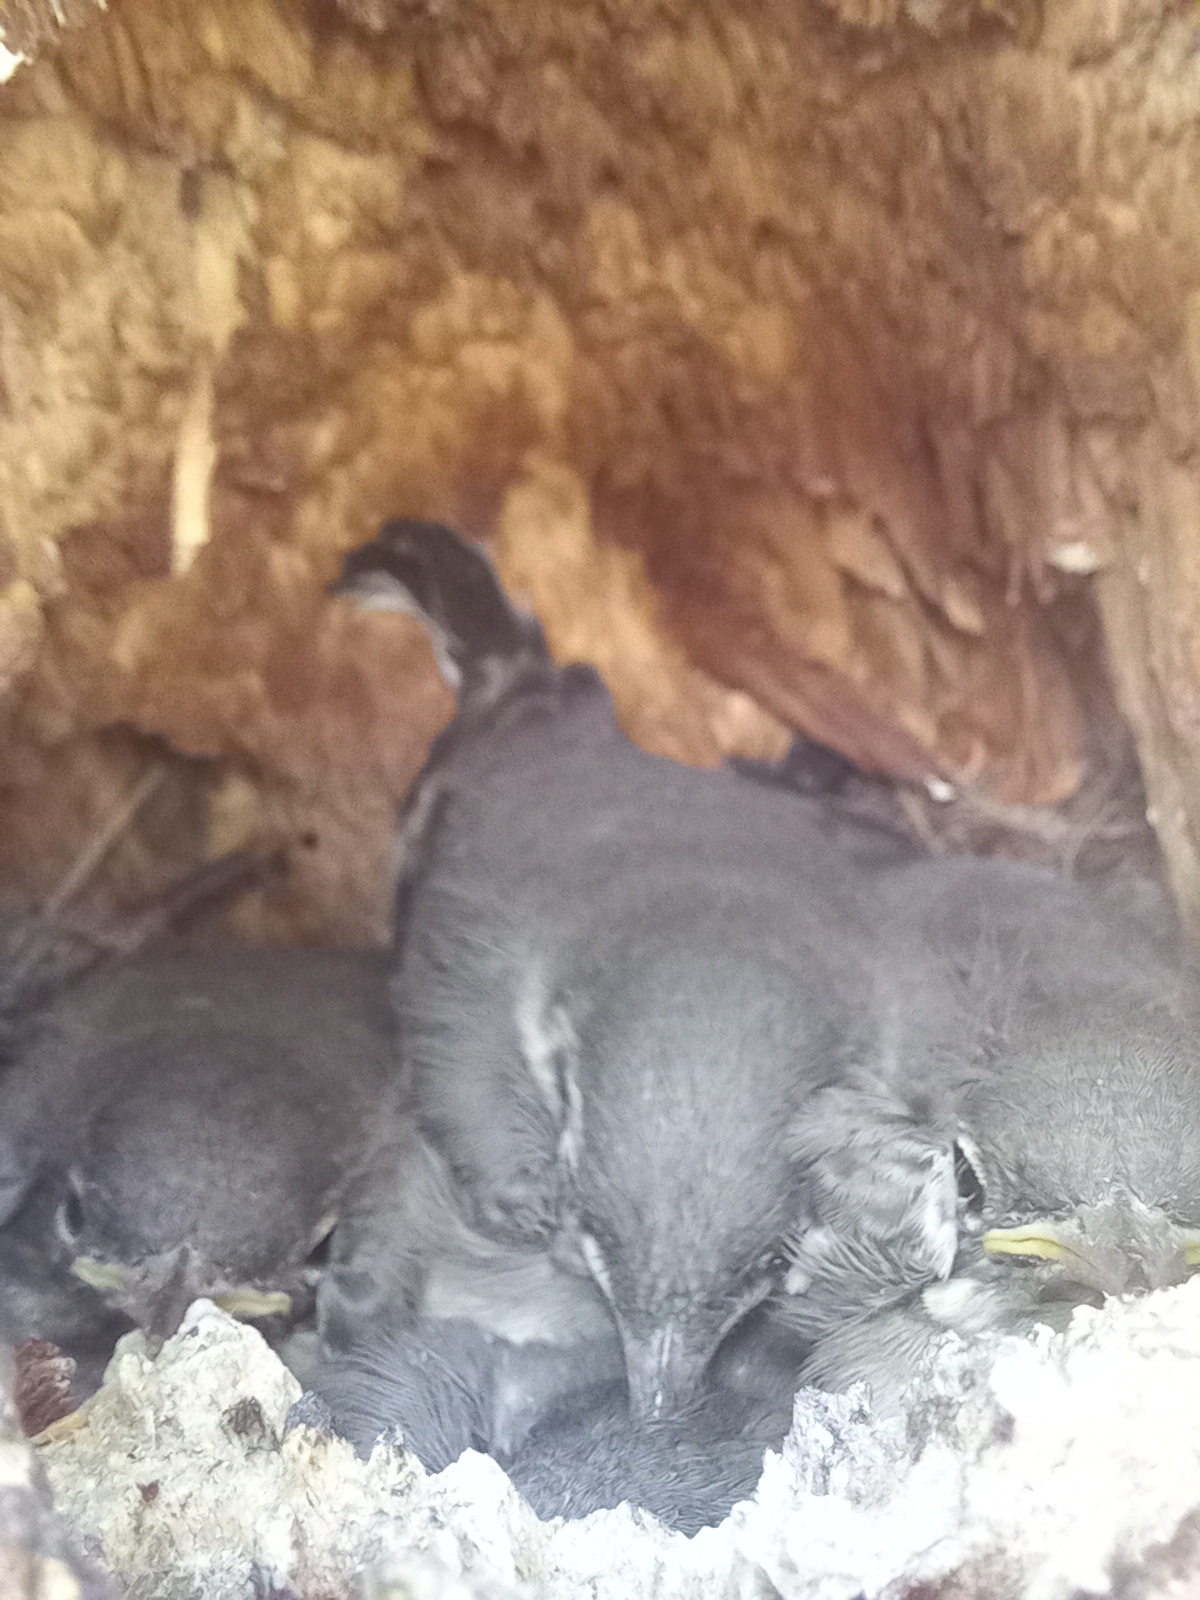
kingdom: Animalia
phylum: Chordata
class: Aves
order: Passeriformes
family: Motacillidae
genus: Motacilla
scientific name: Motacilla alba
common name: White wagtail
